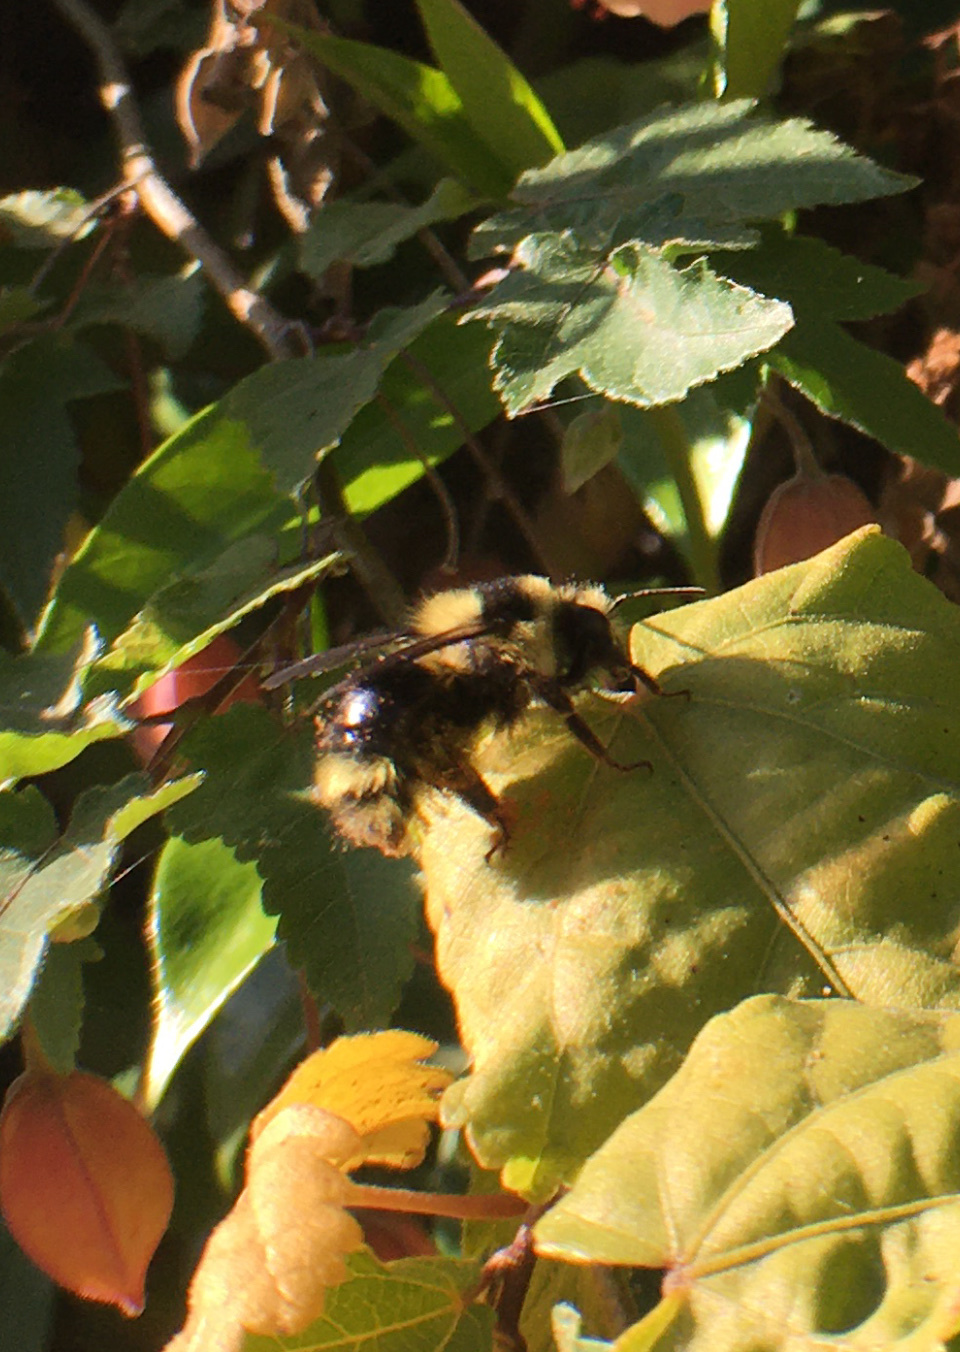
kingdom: Animalia
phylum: Arthropoda
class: Insecta
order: Hymenoptera
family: Apidae
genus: Bombus
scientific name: Bombus melanopygus
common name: Black tail bumble bee
